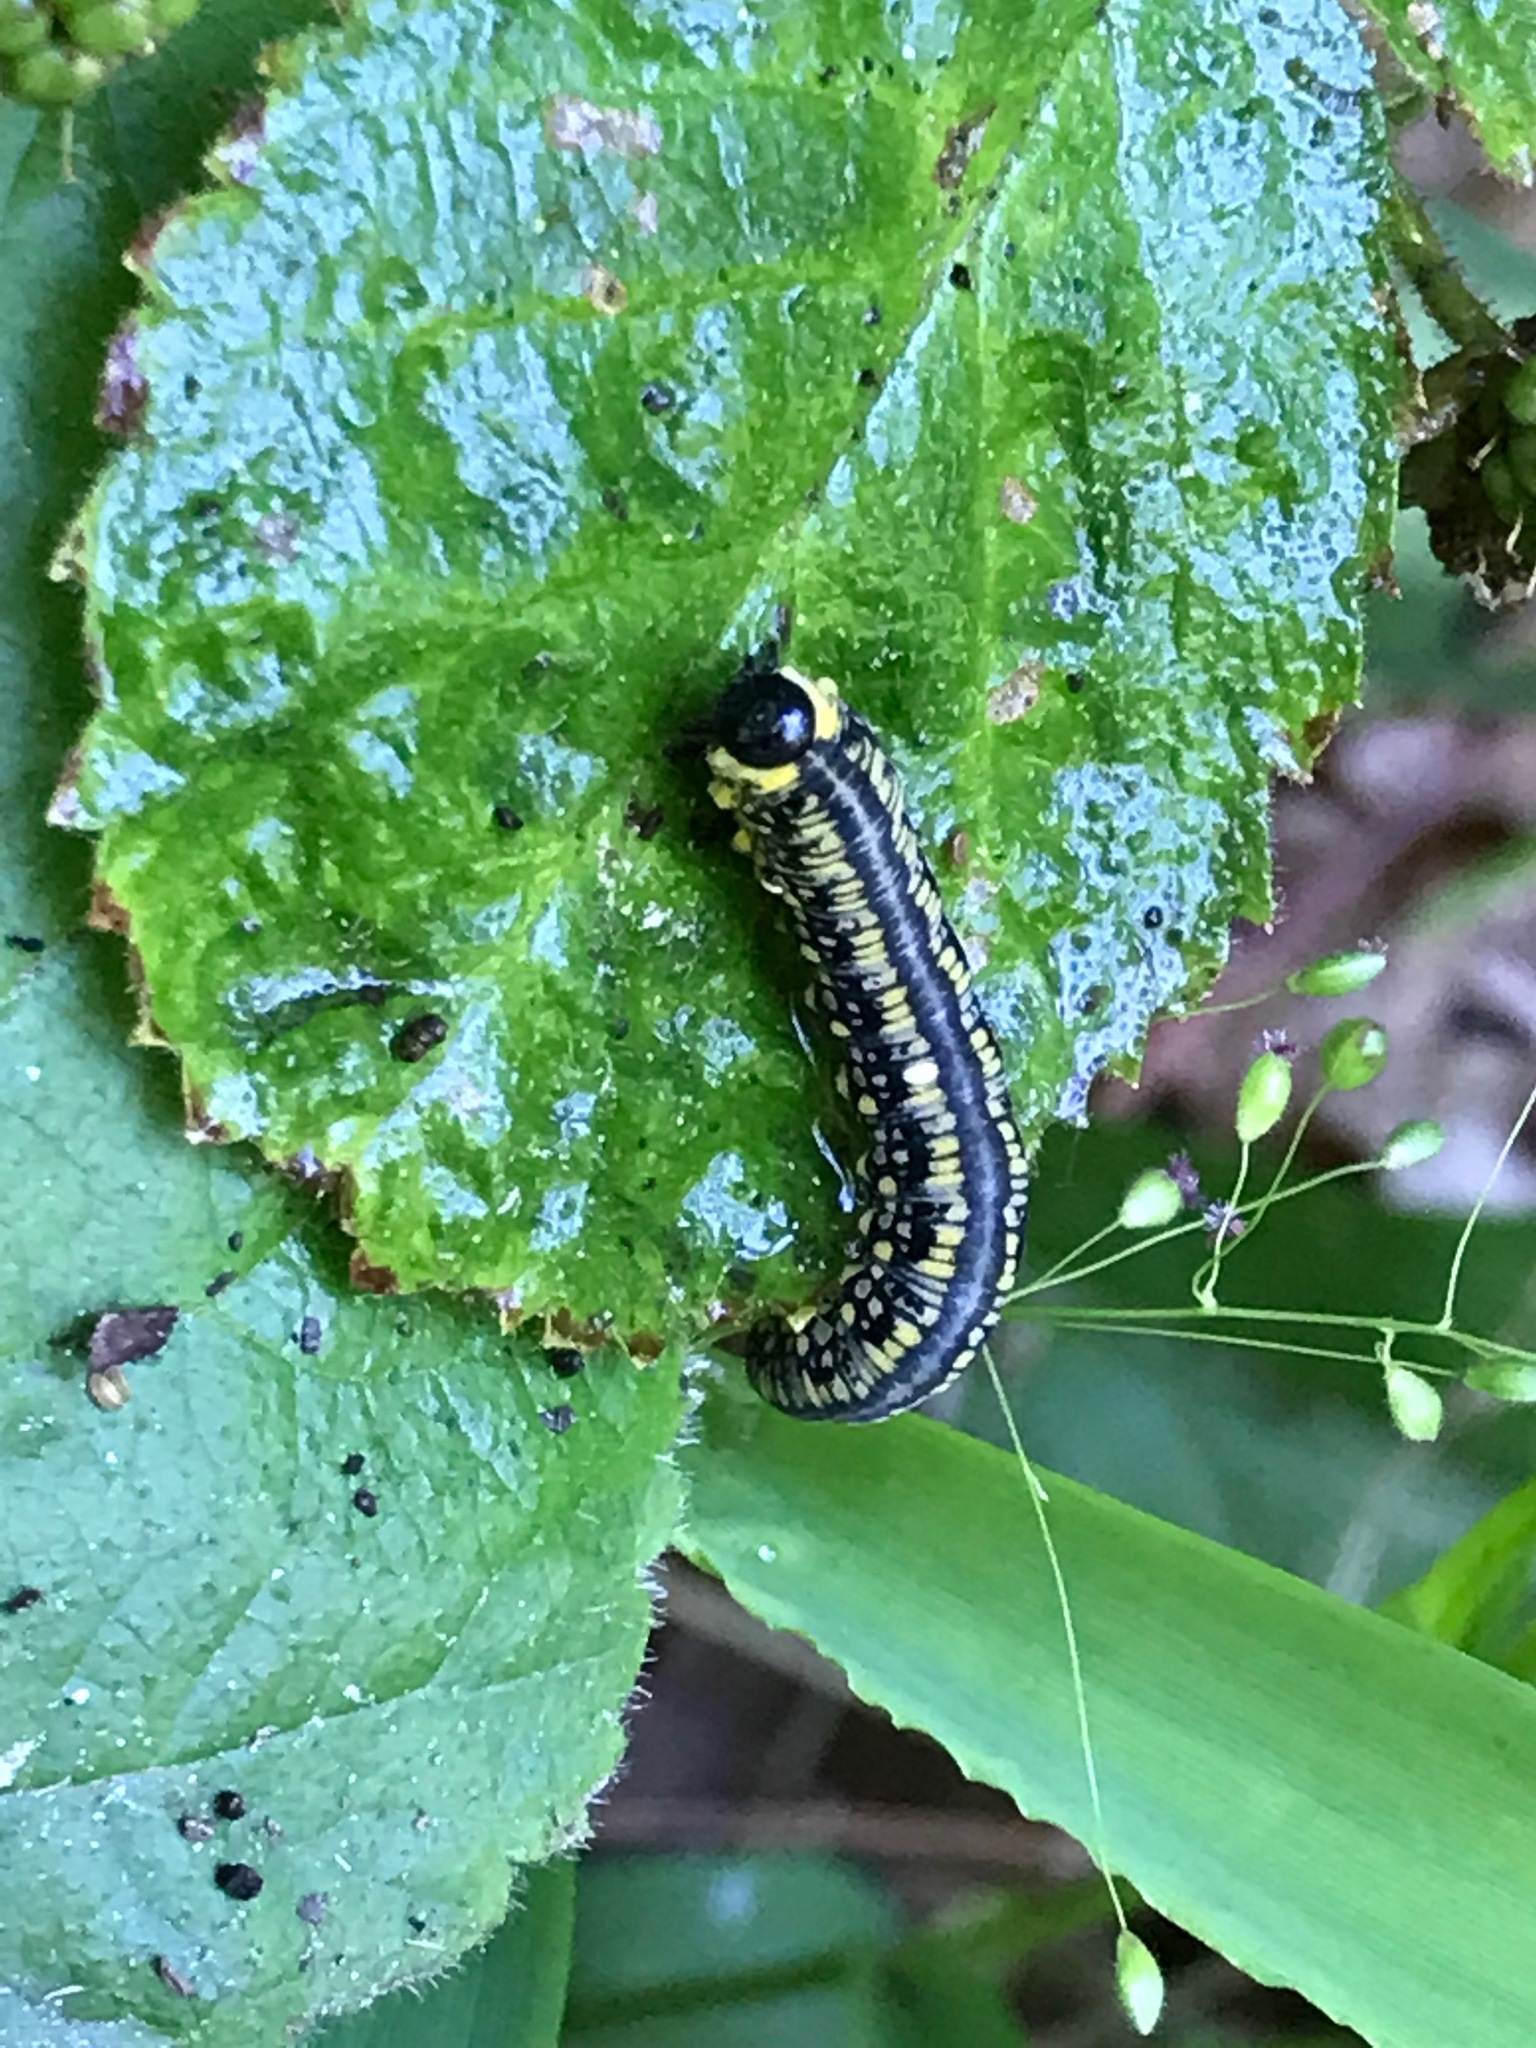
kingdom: Animalia
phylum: Arthropoda
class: Insecta
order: Hymenoptera
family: Diprionidae
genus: Diprion
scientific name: Diprion similis
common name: Pine sawfly
